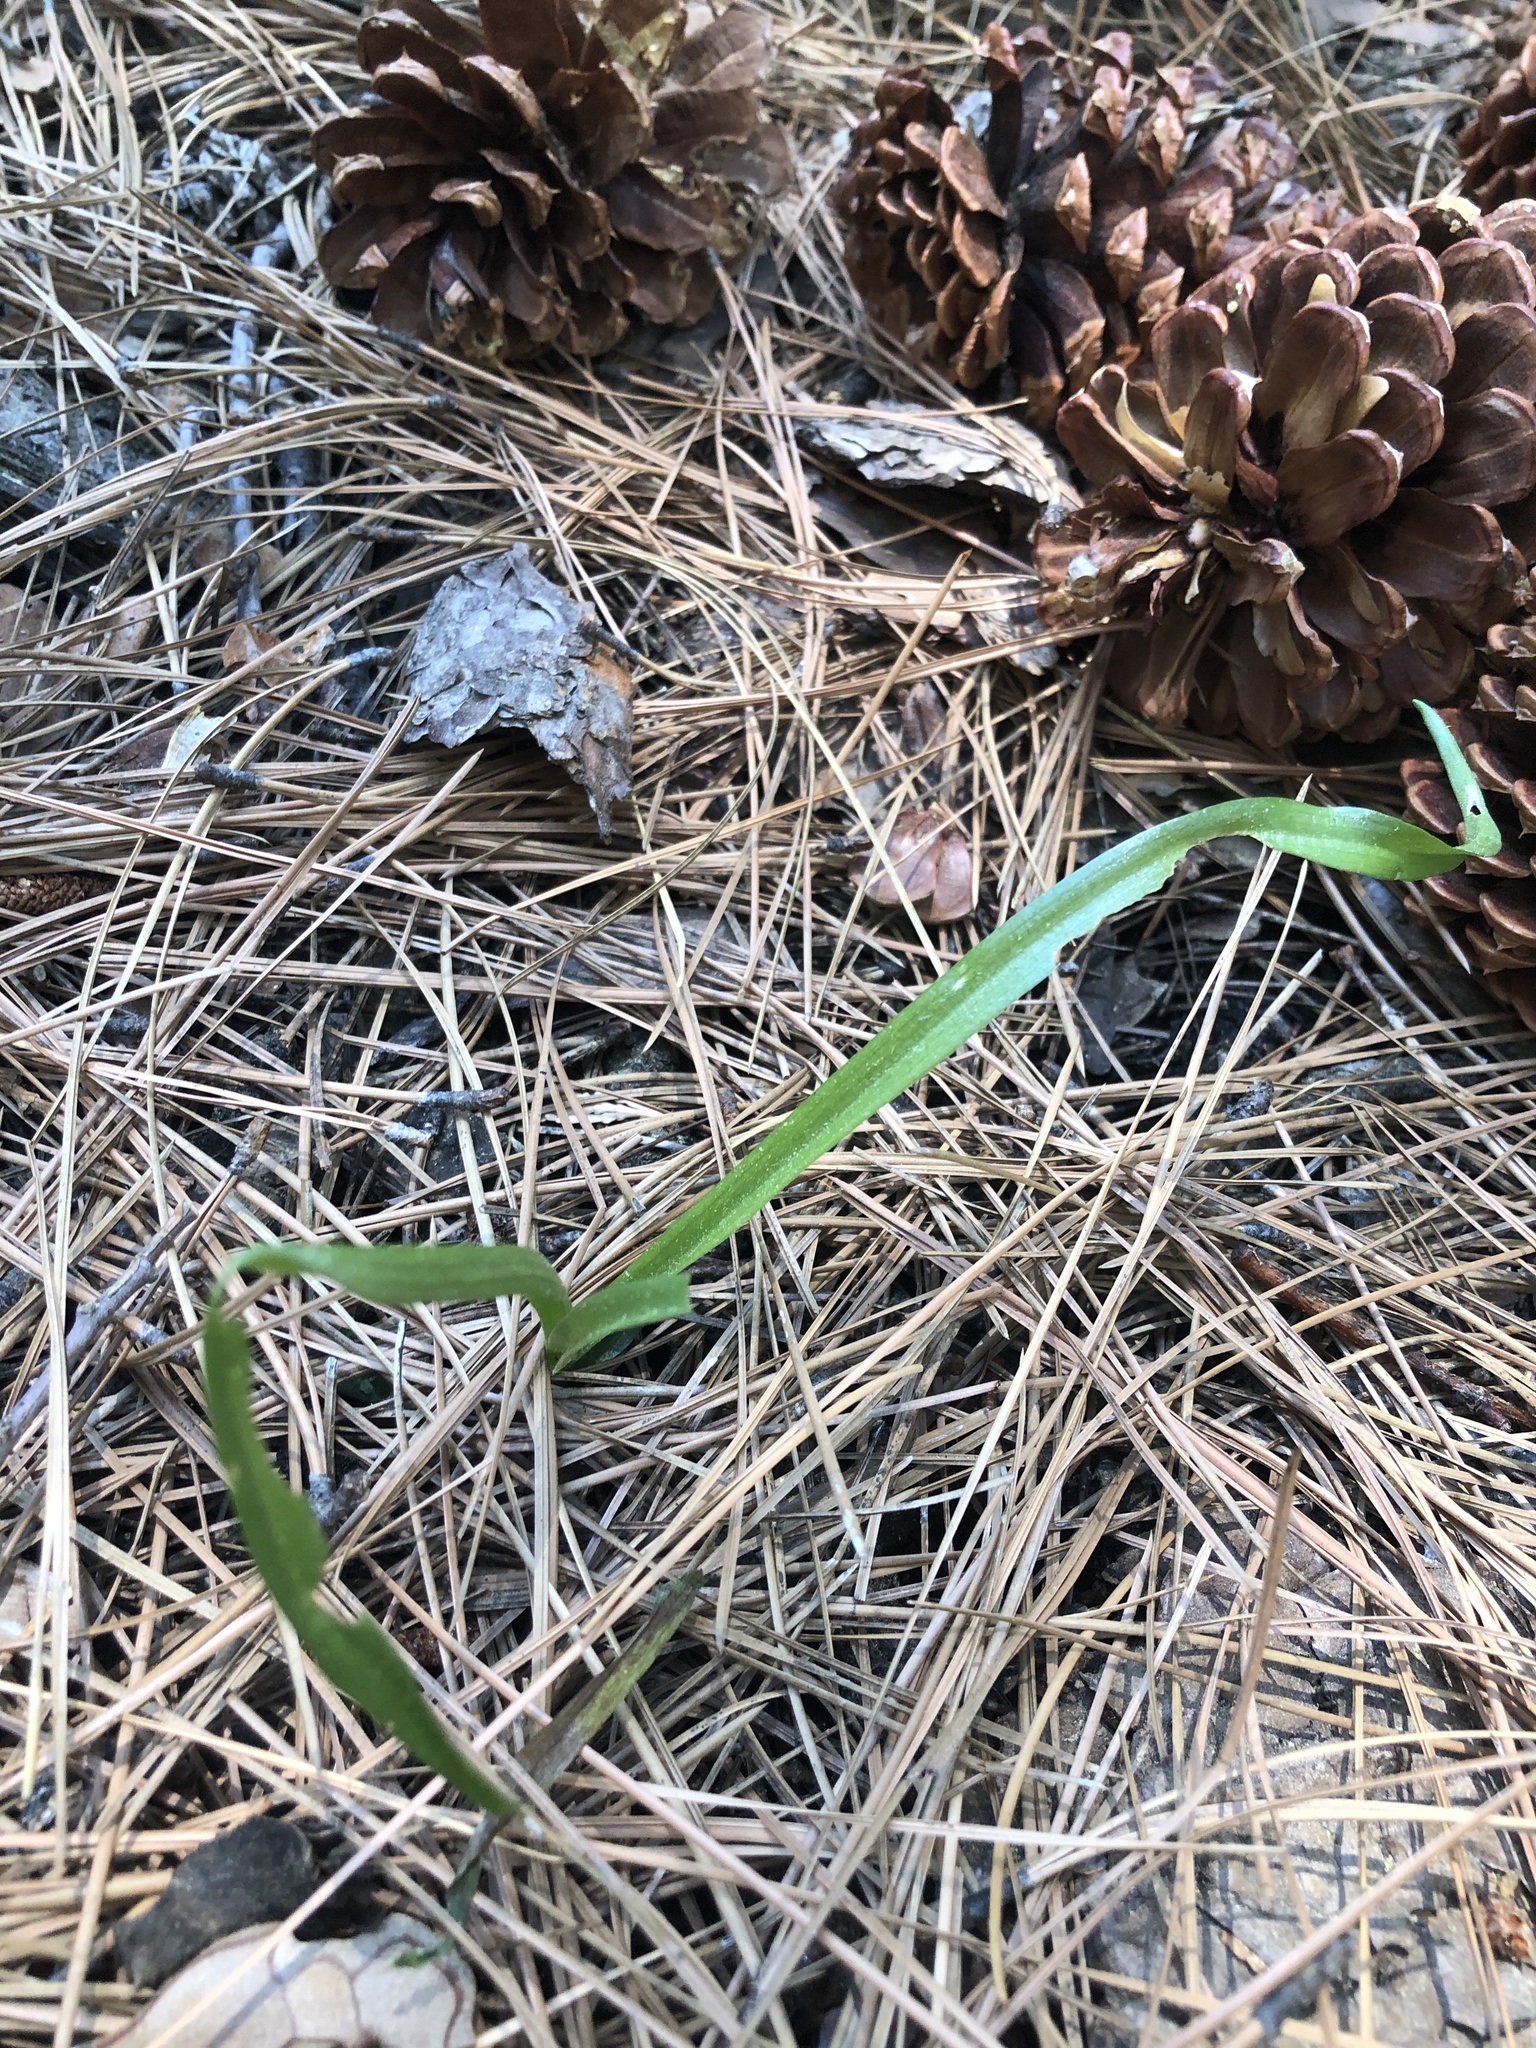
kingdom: Plantae
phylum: Tracheophyta
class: Liliopsida
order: Asparagales
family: Orchidaceae
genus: Platanthera
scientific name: Platanthera dilatata
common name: Bog candles
